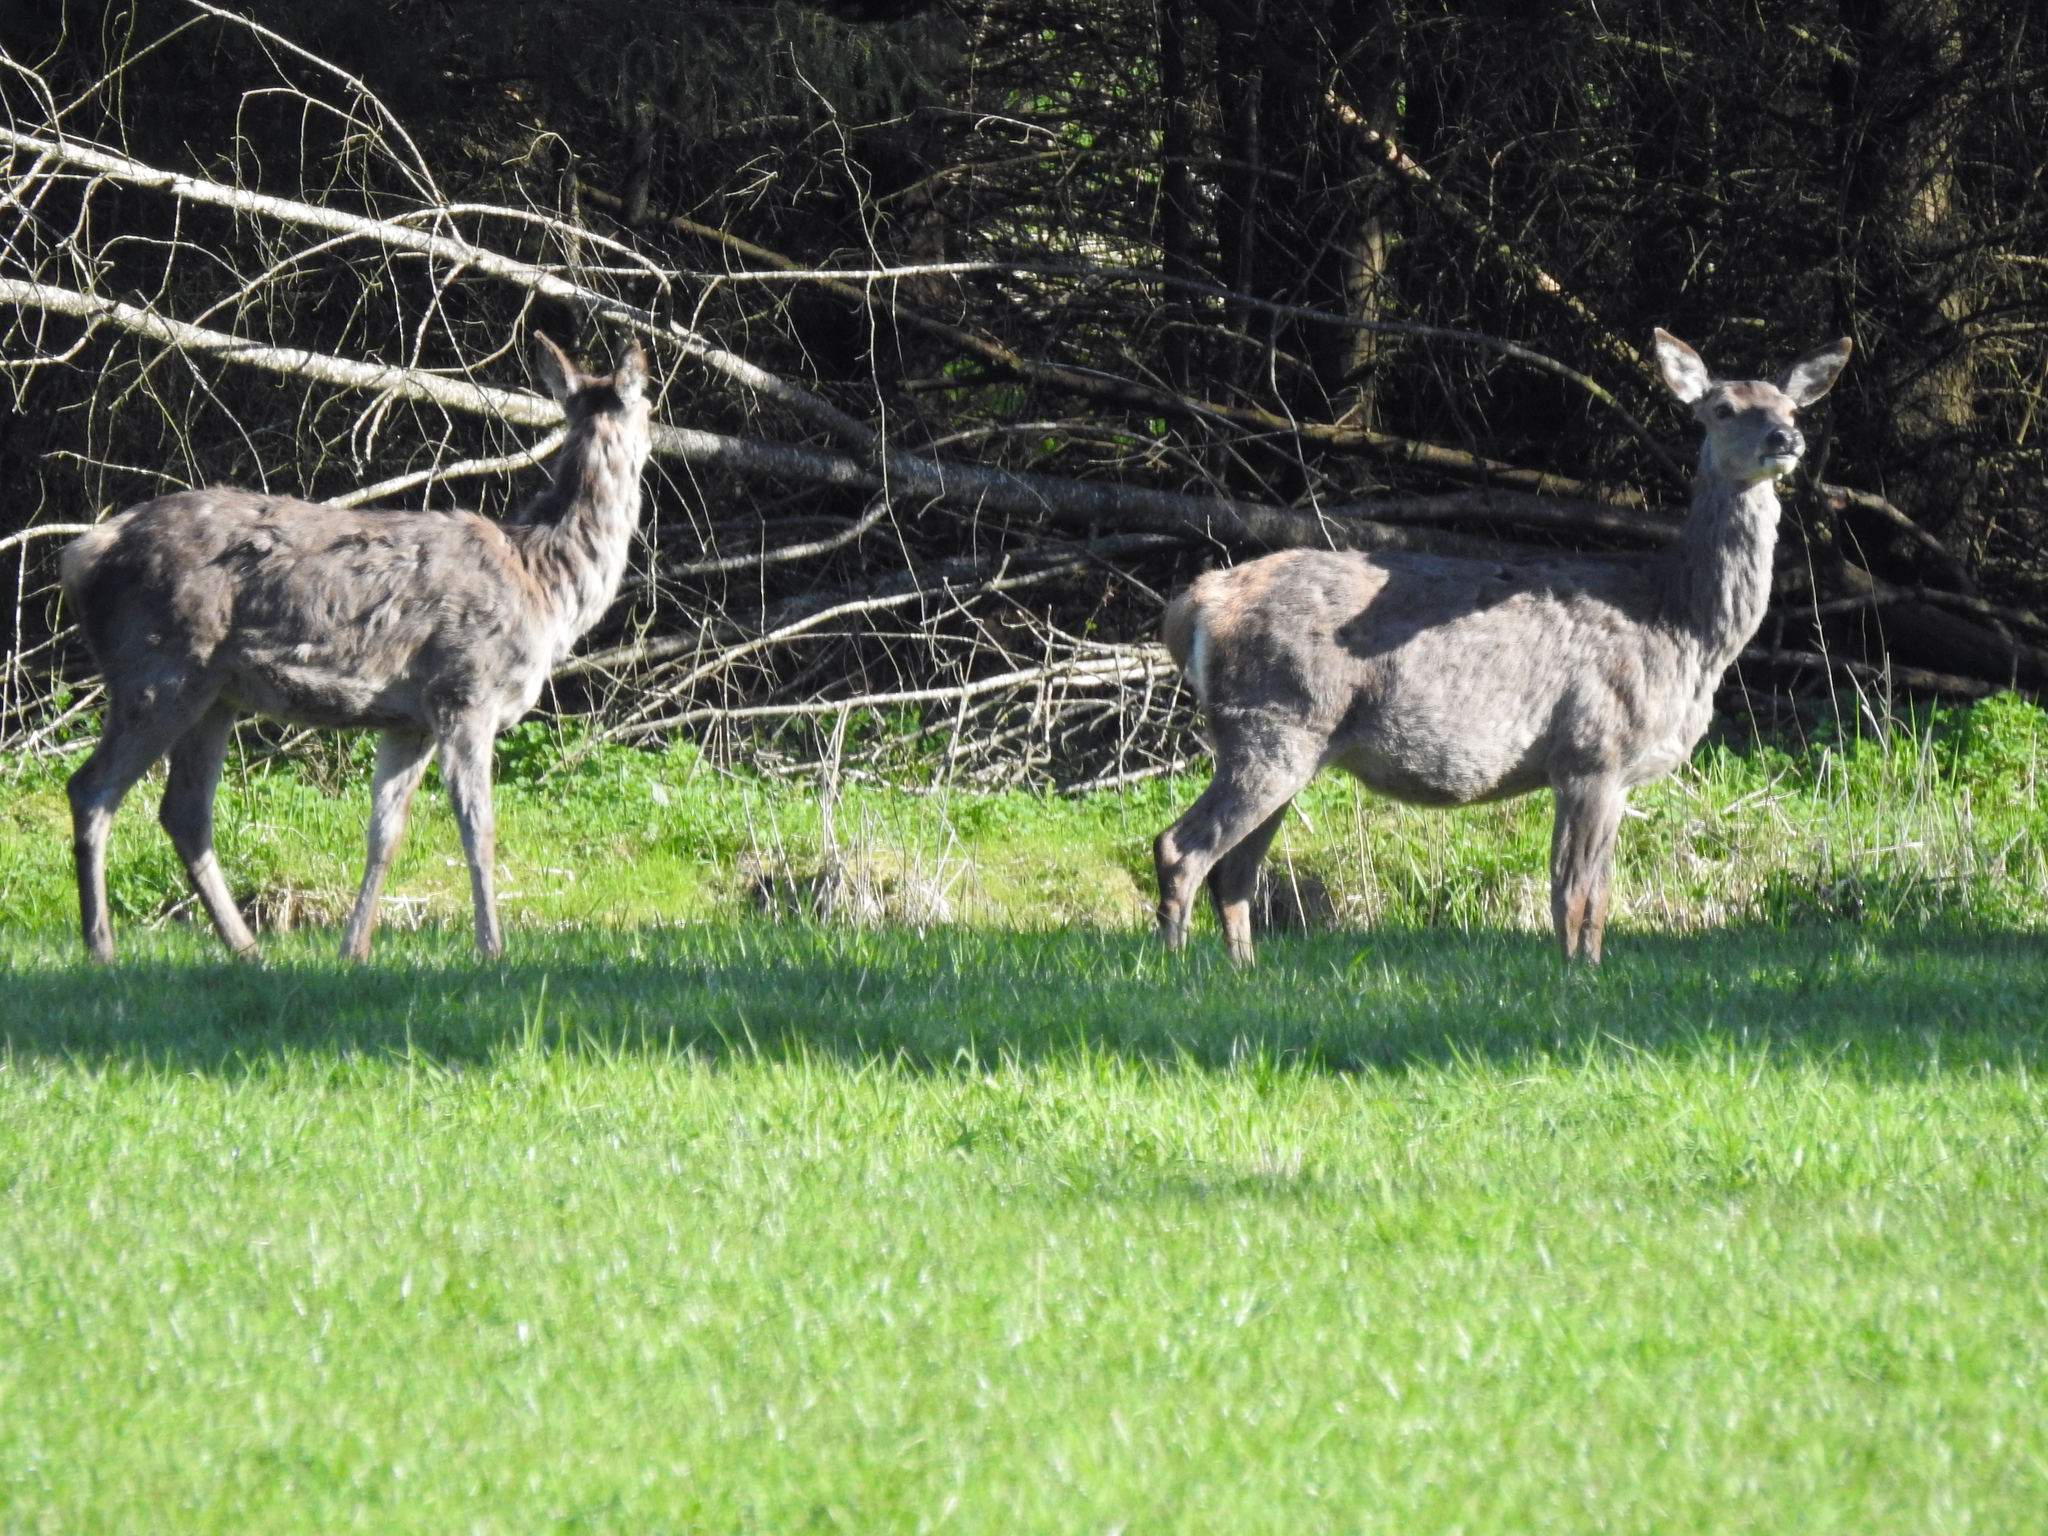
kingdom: Animalia
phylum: Chordata
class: Mammalia
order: Artiodactyla
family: Cervidae
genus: Cervus
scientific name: Cervus elaphus
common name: Red deer
